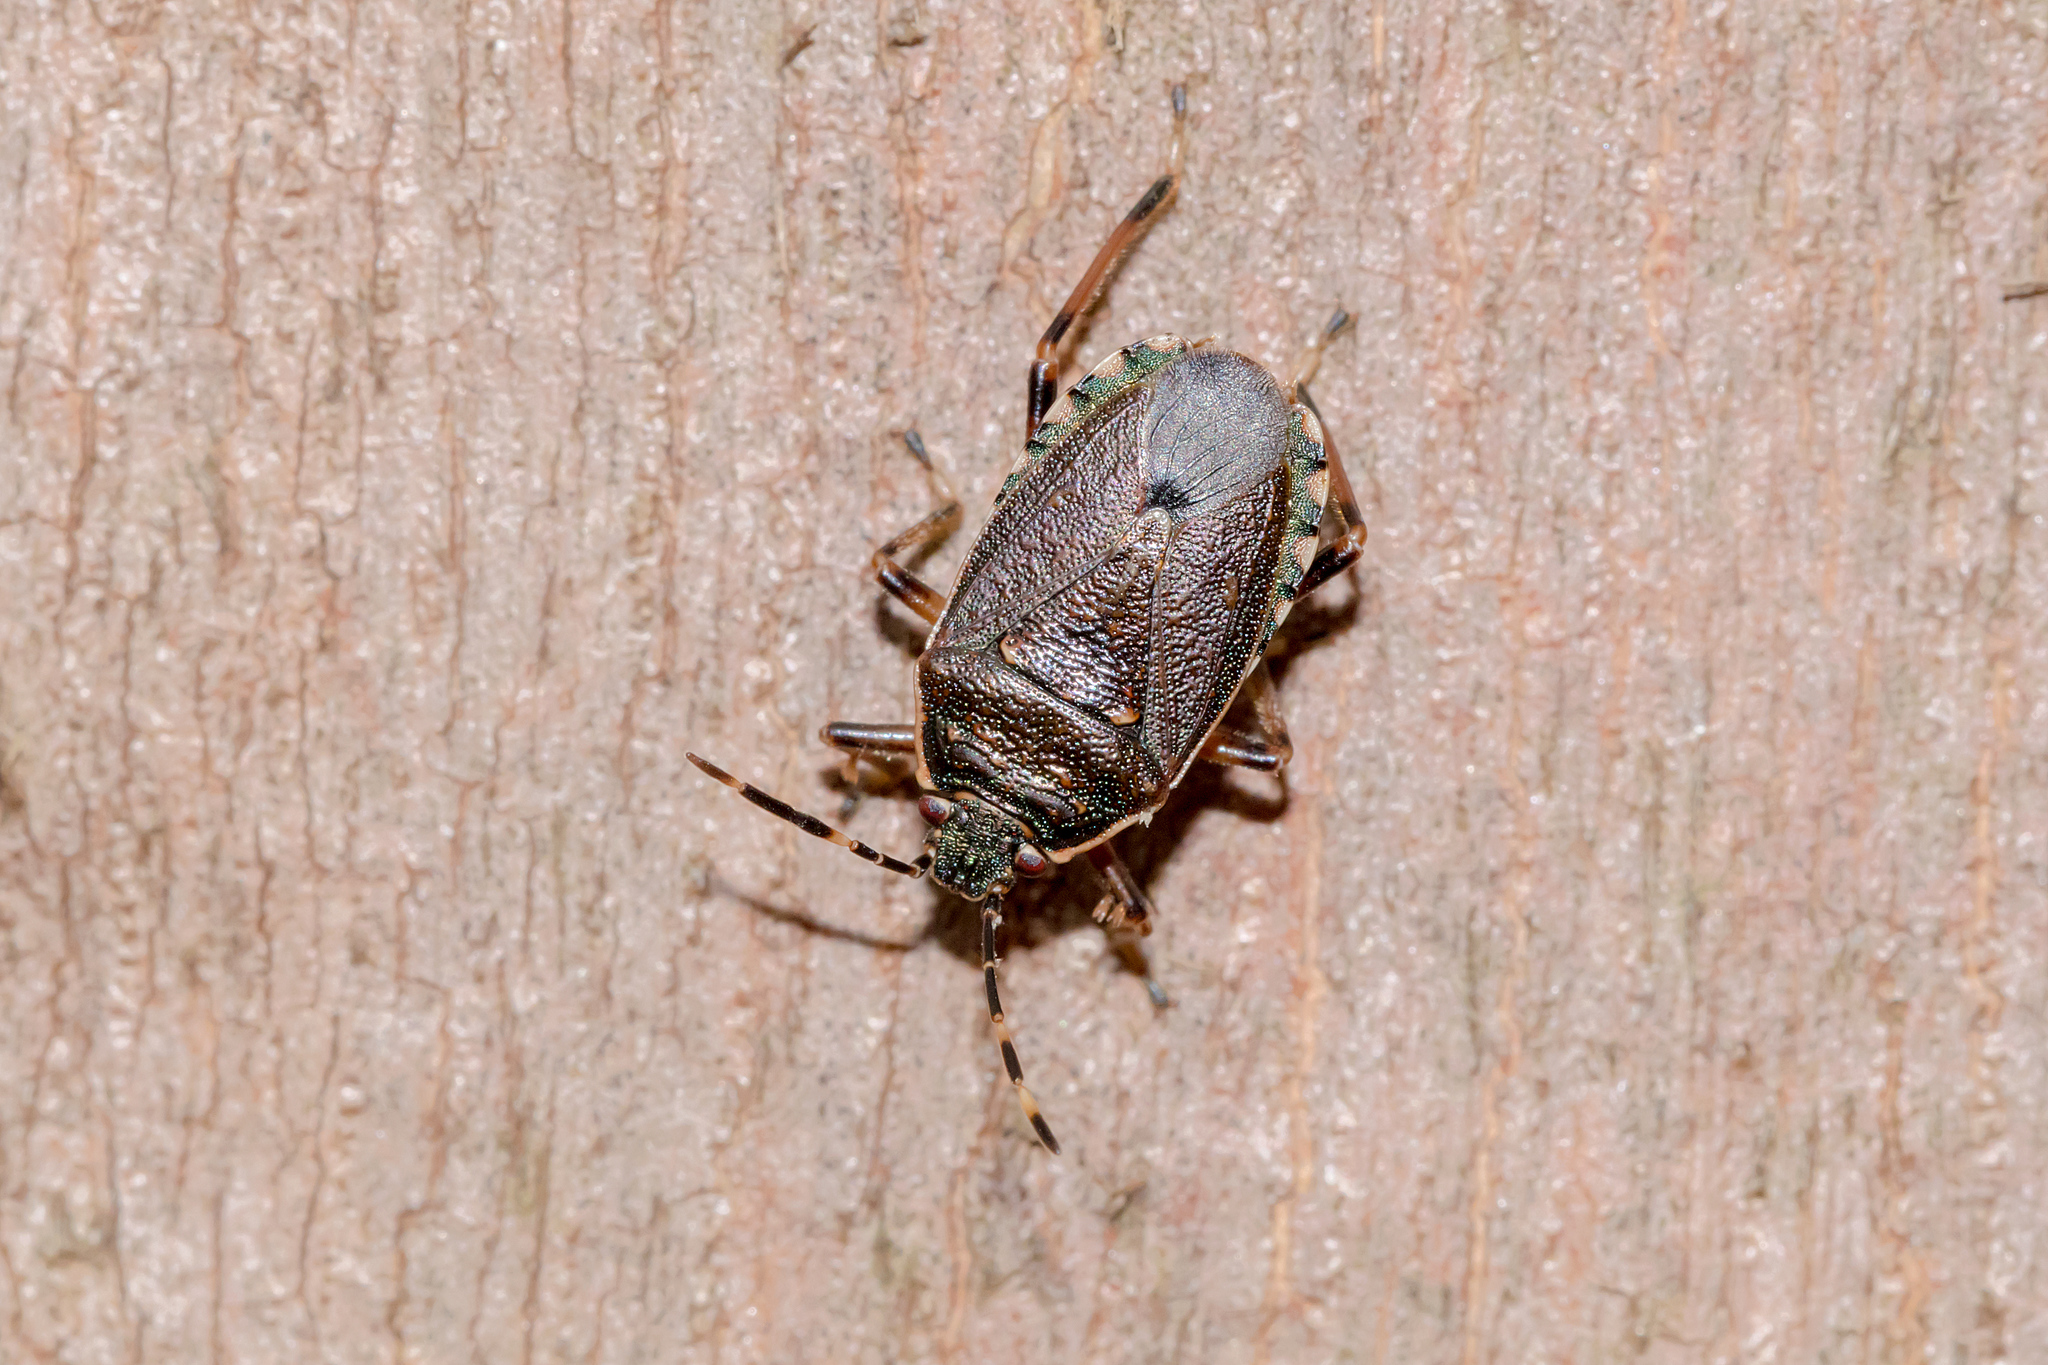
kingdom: Animalia
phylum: Arthropoda
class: Insecta
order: Hemiptera
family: Pentatomidae
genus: Notius
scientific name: Notius
